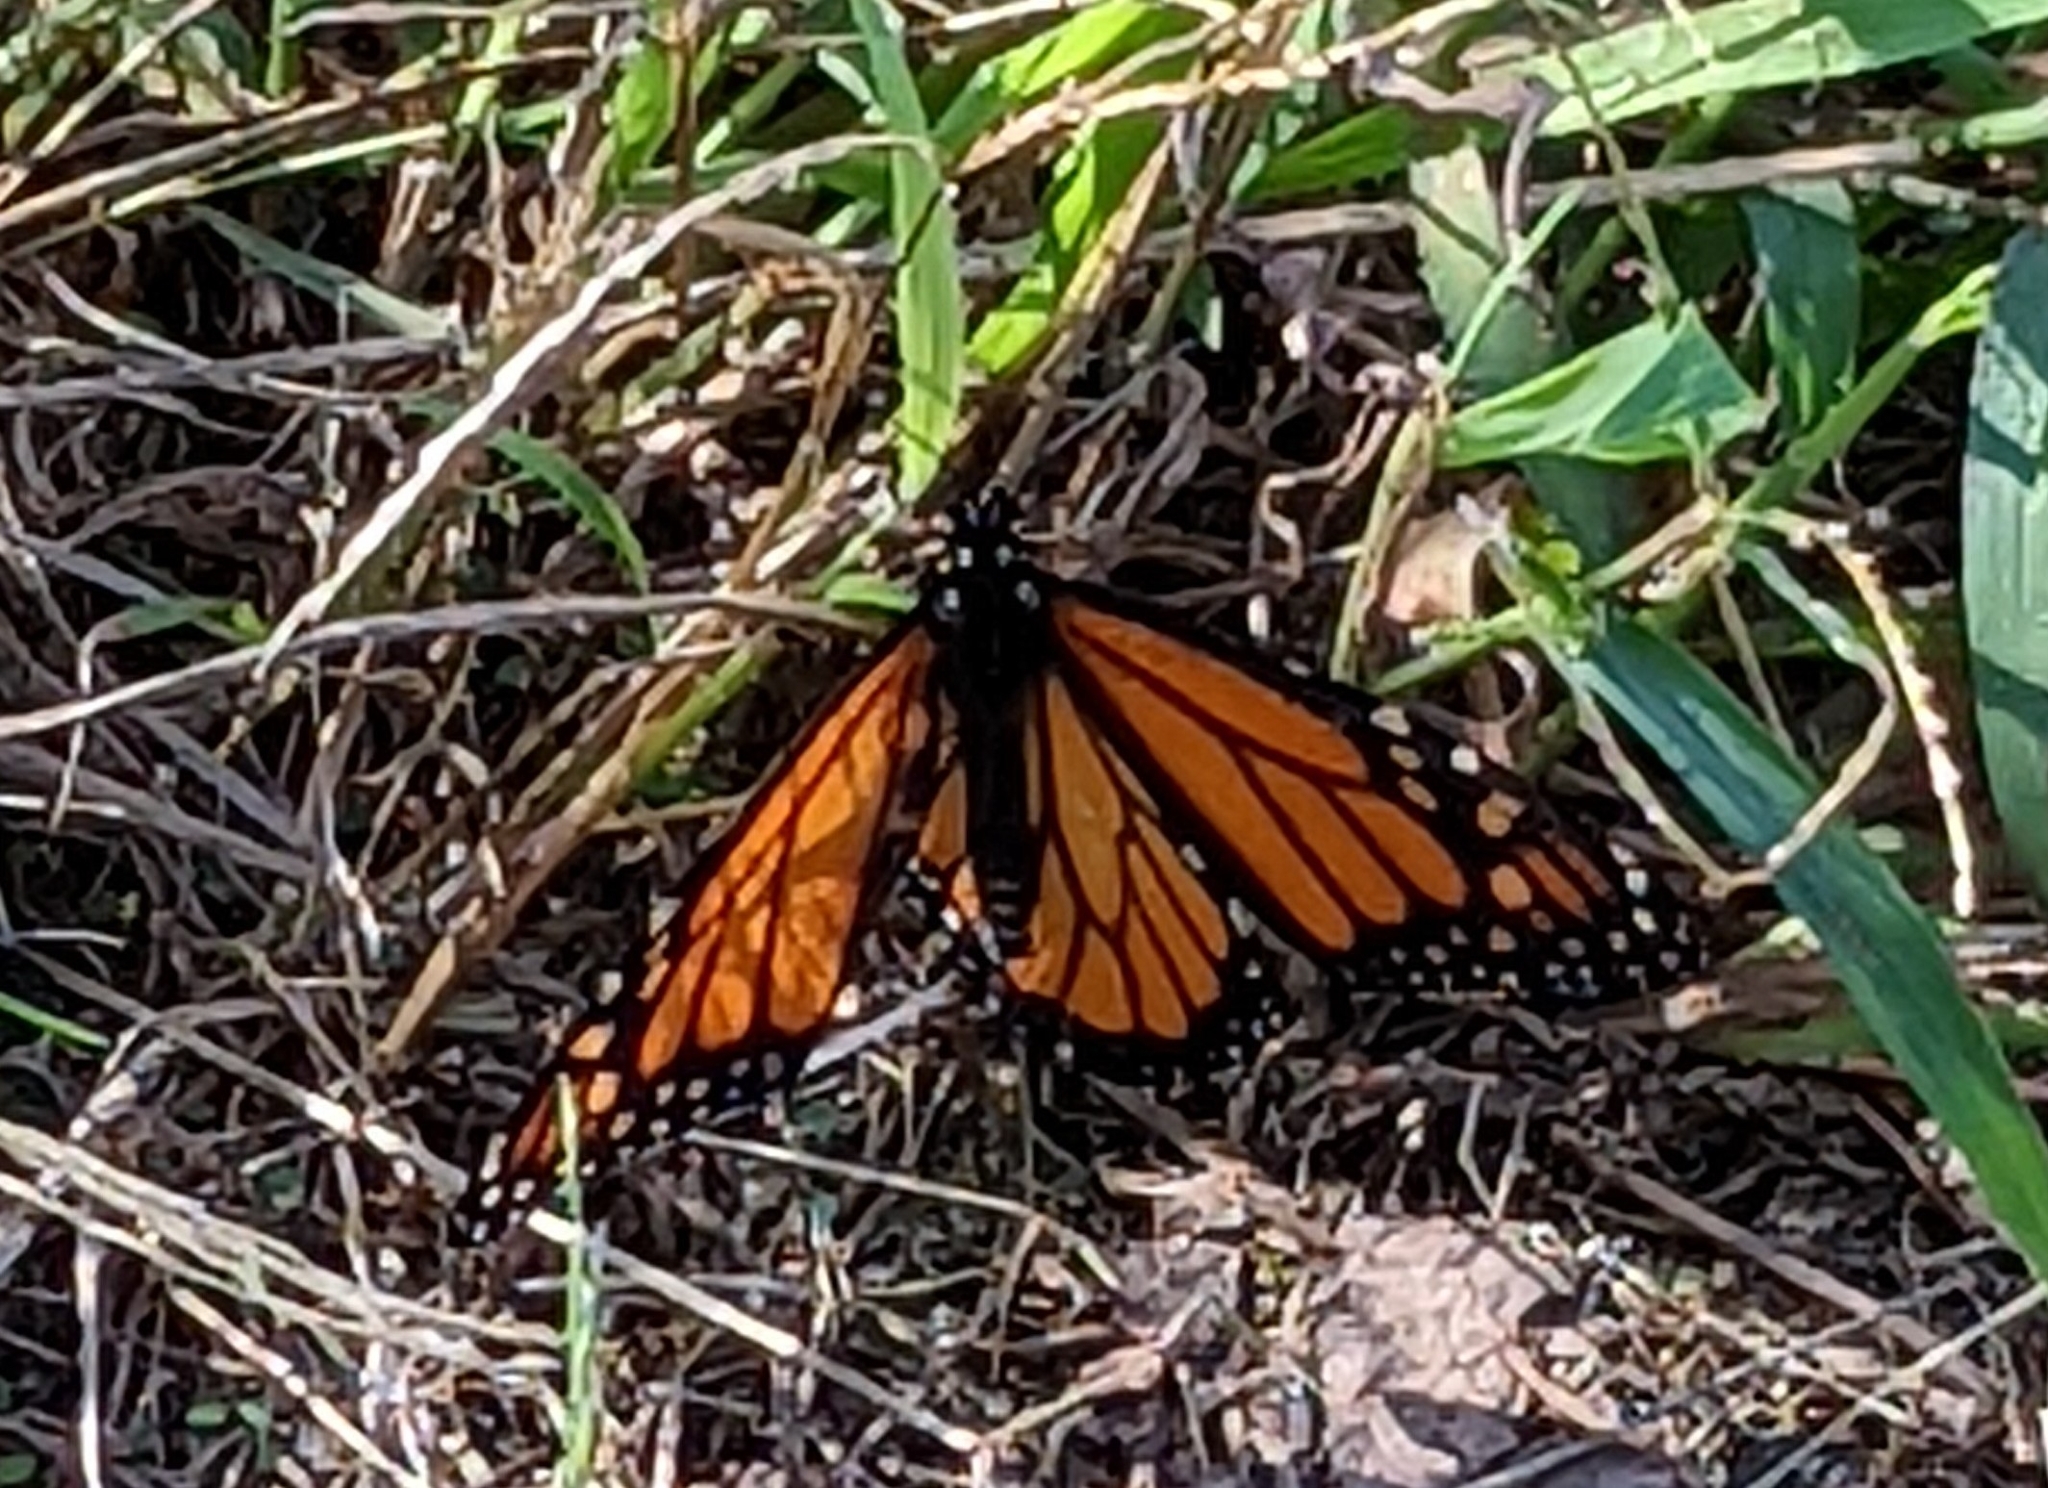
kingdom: Animalia
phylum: Arthropoda
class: Insecta
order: Lepidoptera
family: Nymphalidae
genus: Danaus
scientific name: Danaus plexippus
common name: Monarch
